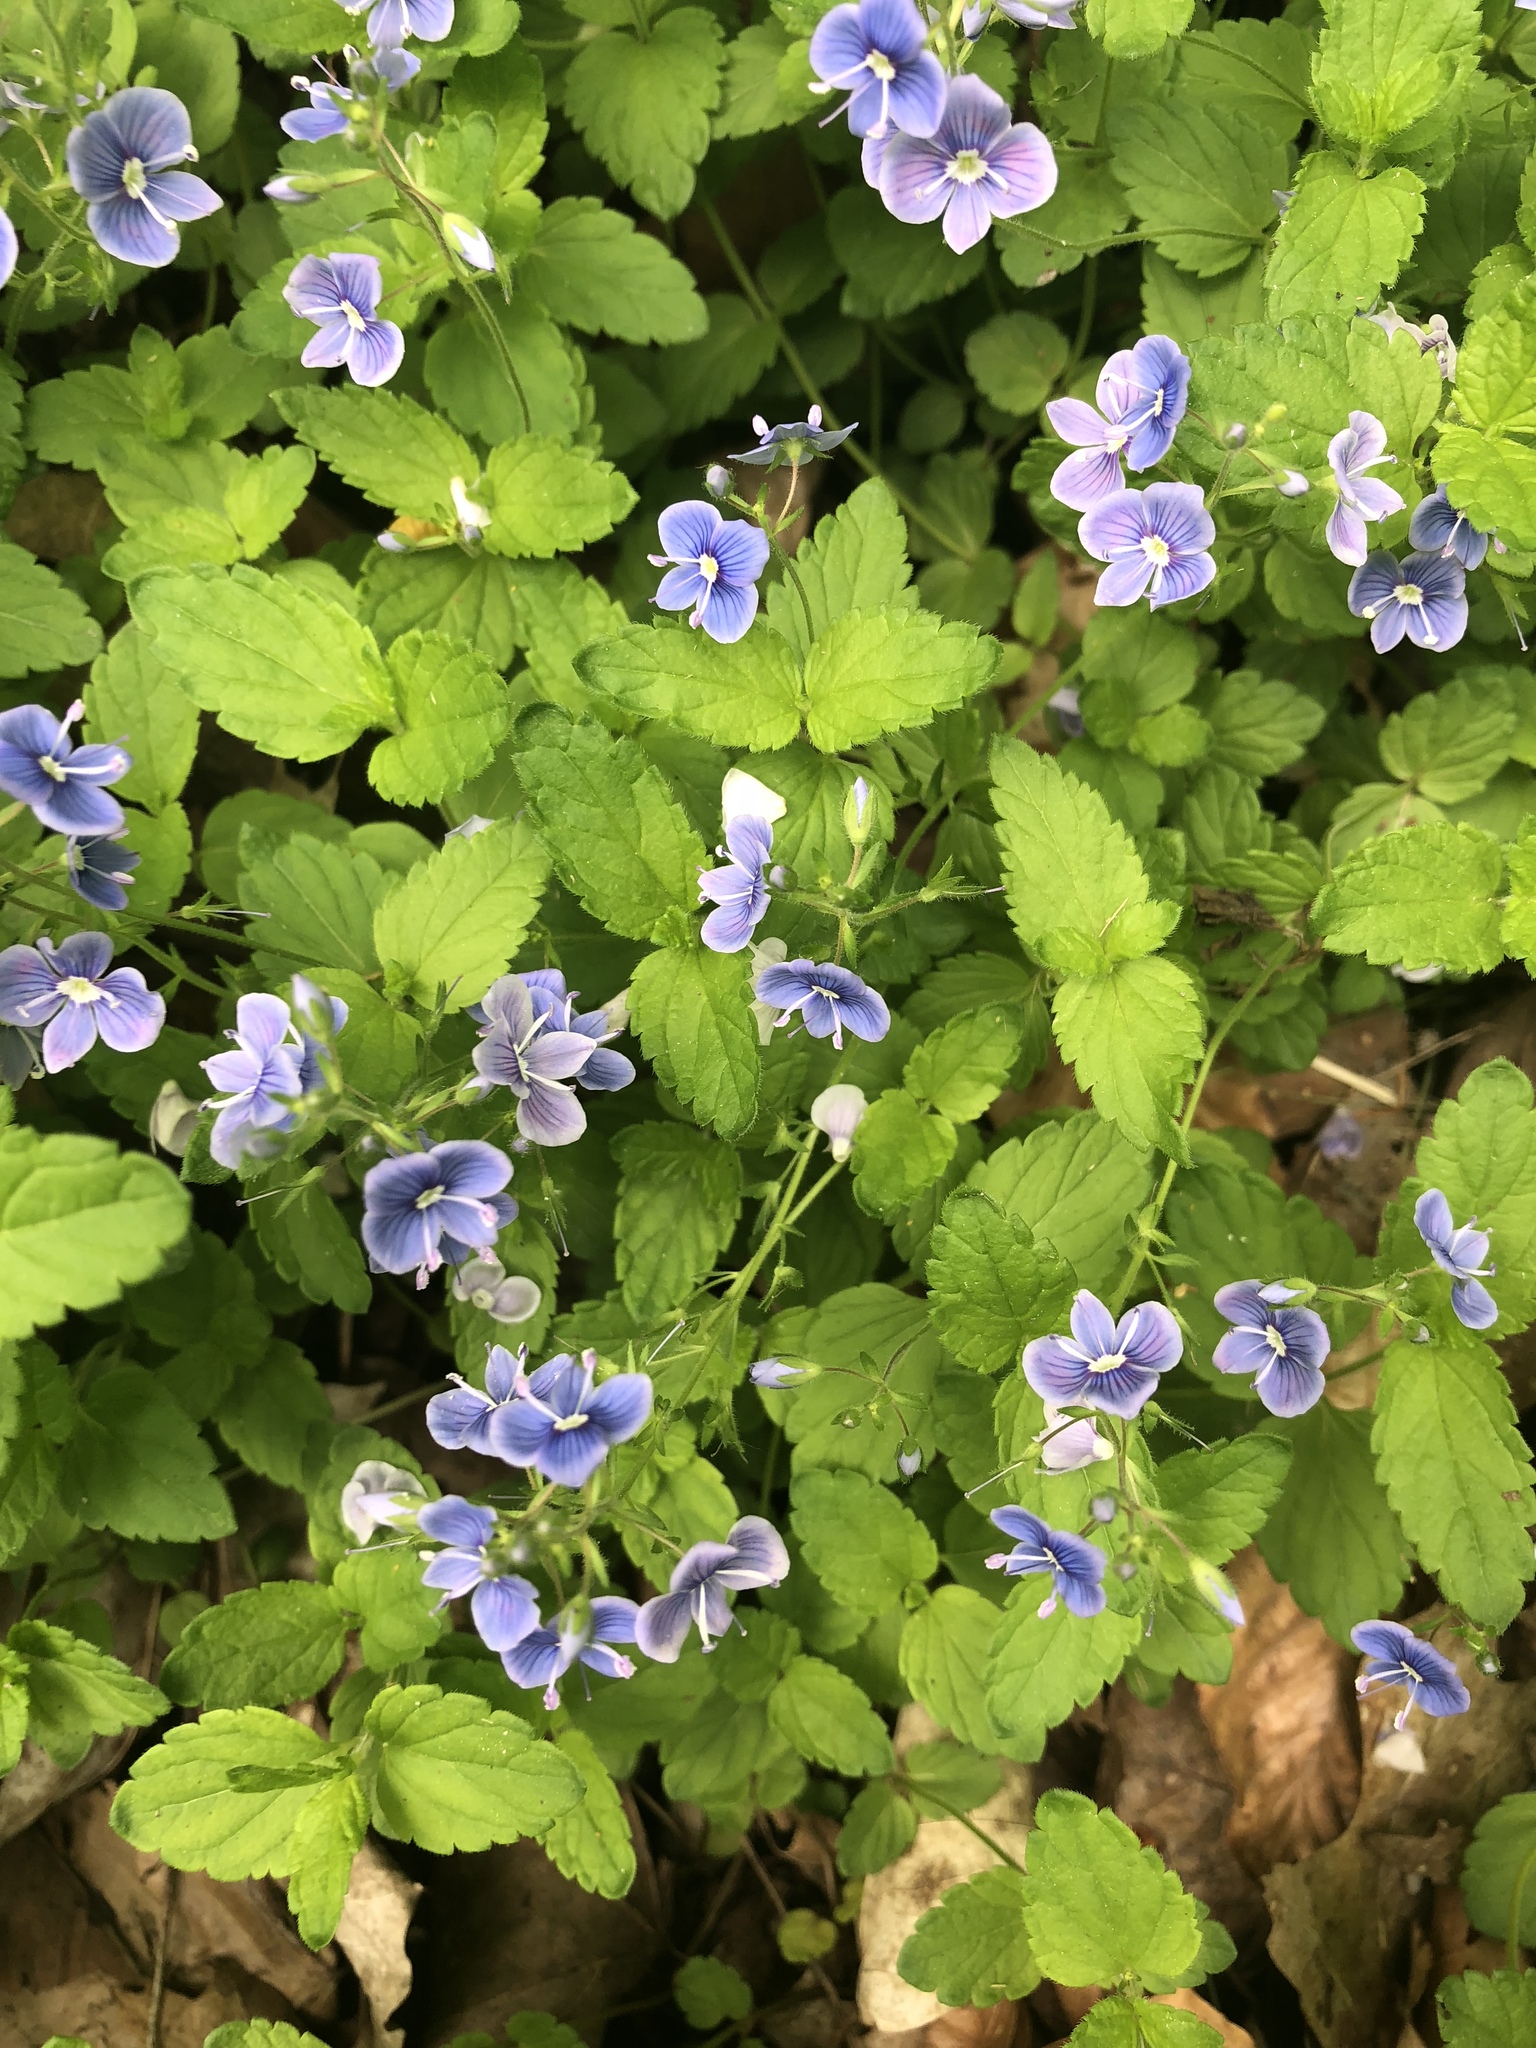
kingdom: Plantae
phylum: Tracheophyta
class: Magnoliopsida
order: Lamiales
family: Plantaginaceae
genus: Veronica
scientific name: Veronica chamaedrys
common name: Germander speedwell
